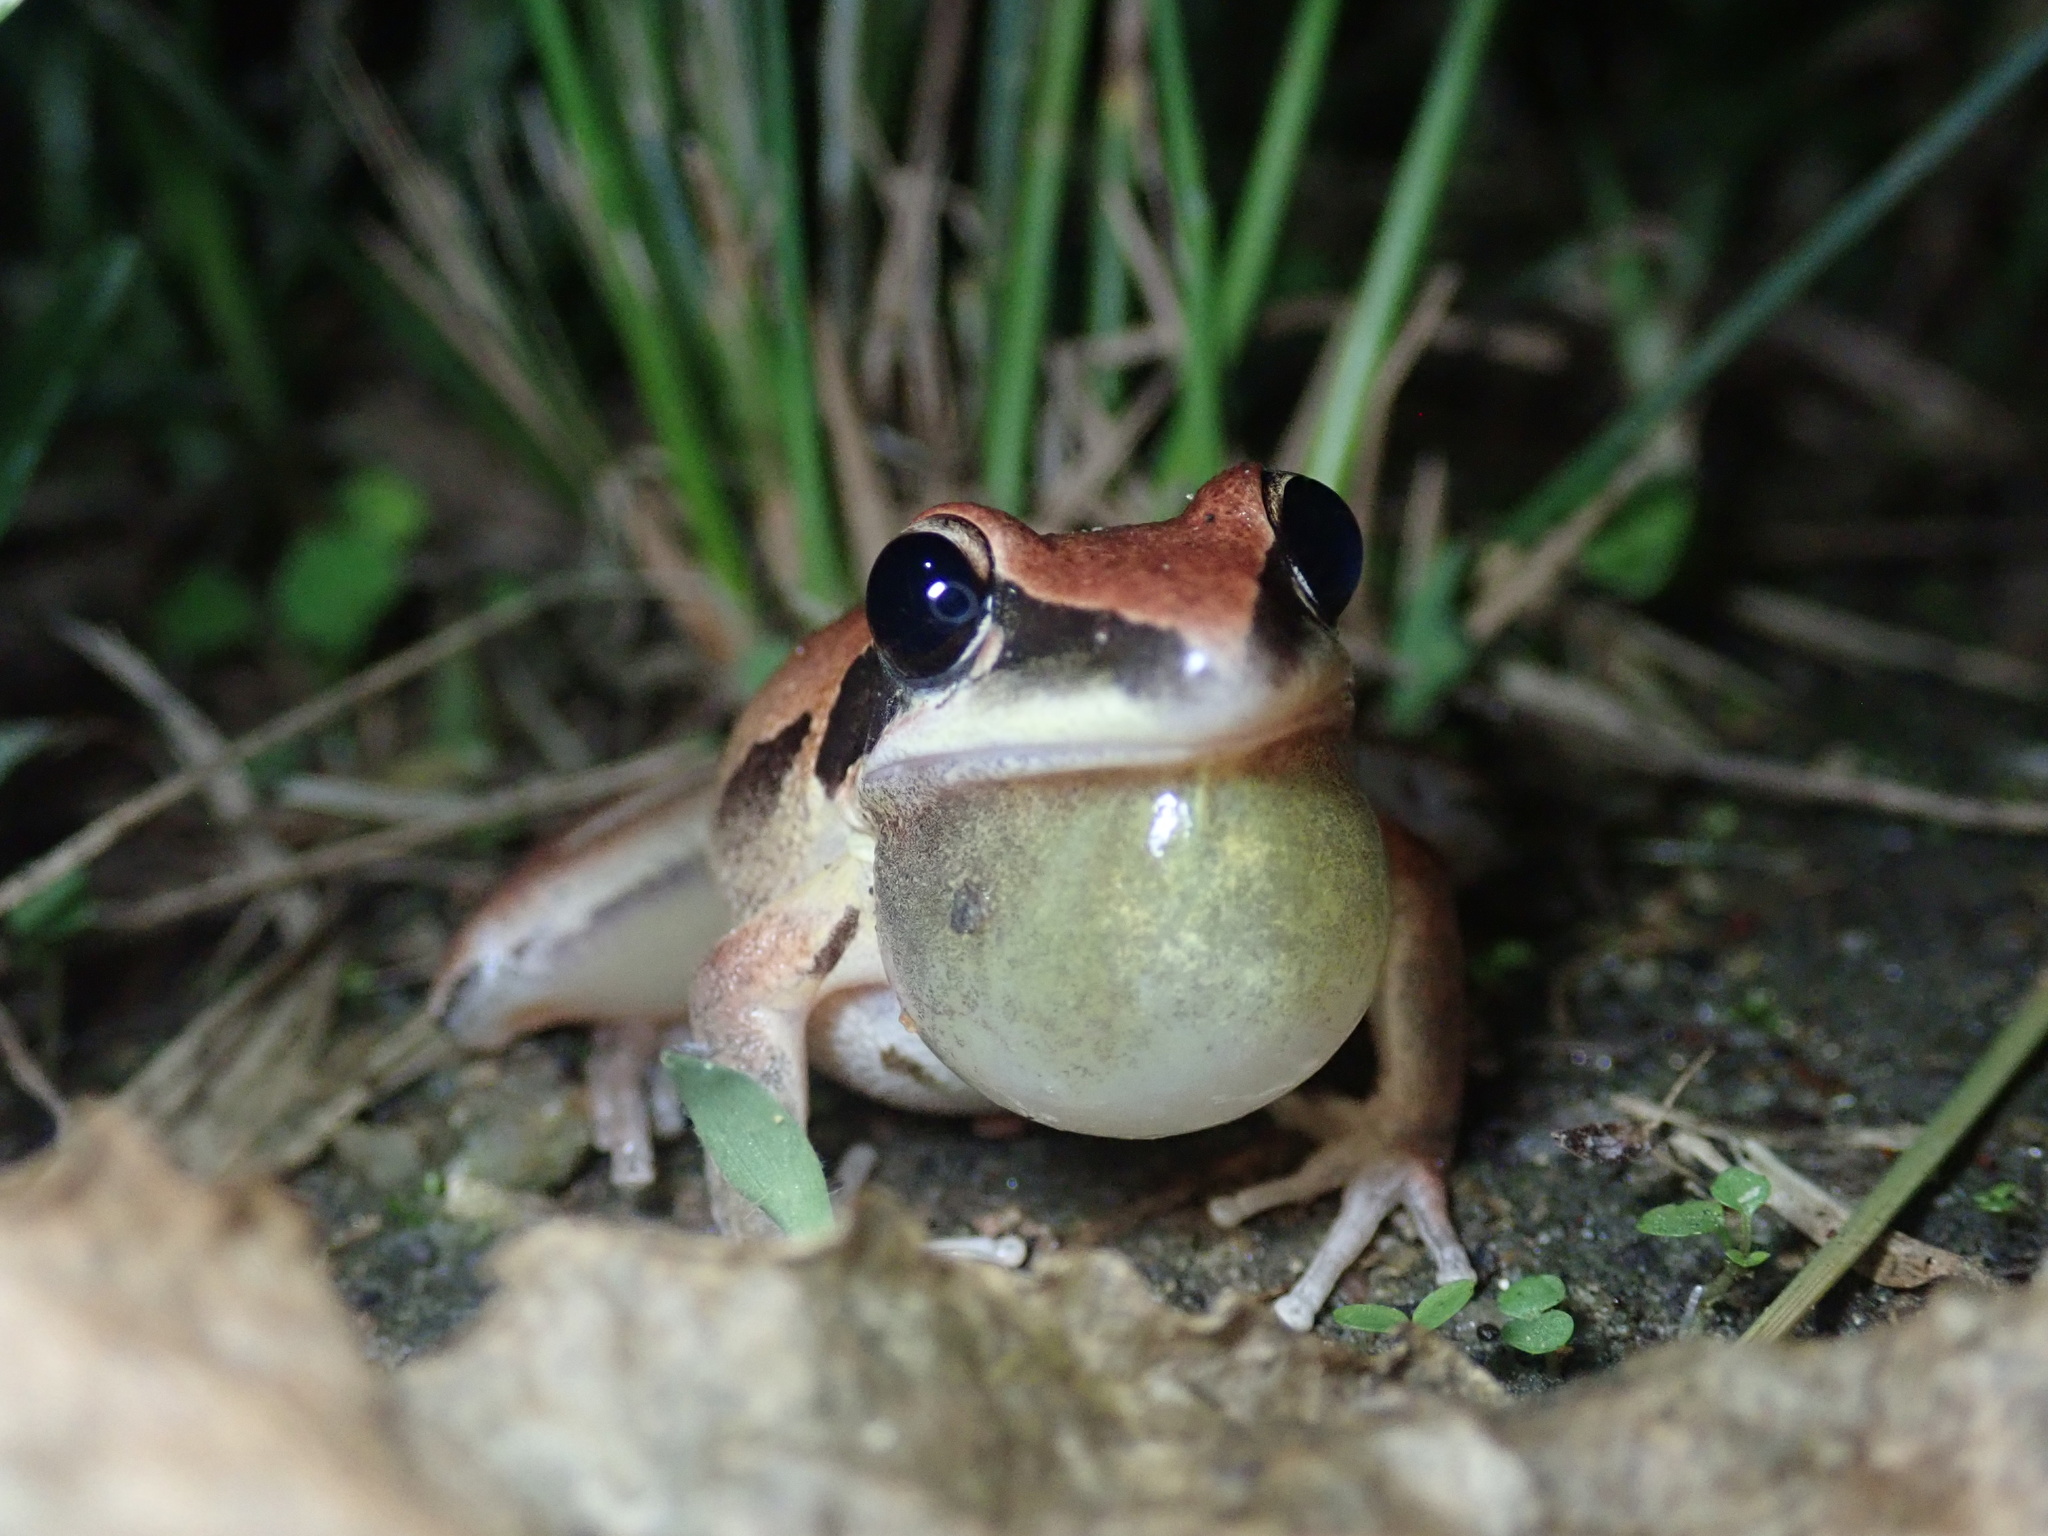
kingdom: Animalia
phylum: Chordata
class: Amphibia
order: Anura
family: Pelodryadidae
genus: Litoria
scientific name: Litoria nigrofrenata
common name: Bridle frog
